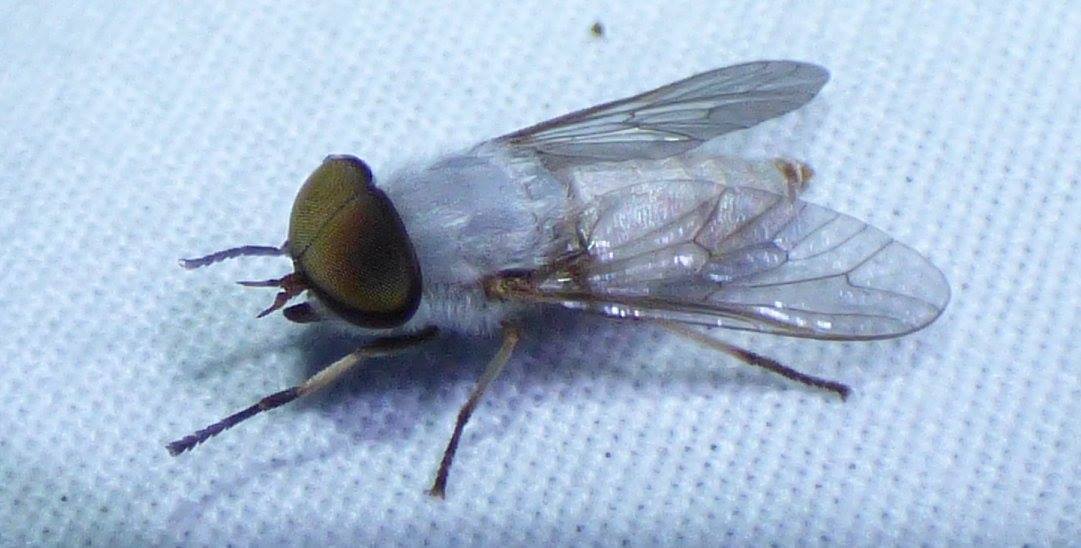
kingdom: Animalia
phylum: Arthropoda
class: Insecta
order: Diptera
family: Tabanidae
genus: Leucotabanus
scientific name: Leucotabanus annulatus
